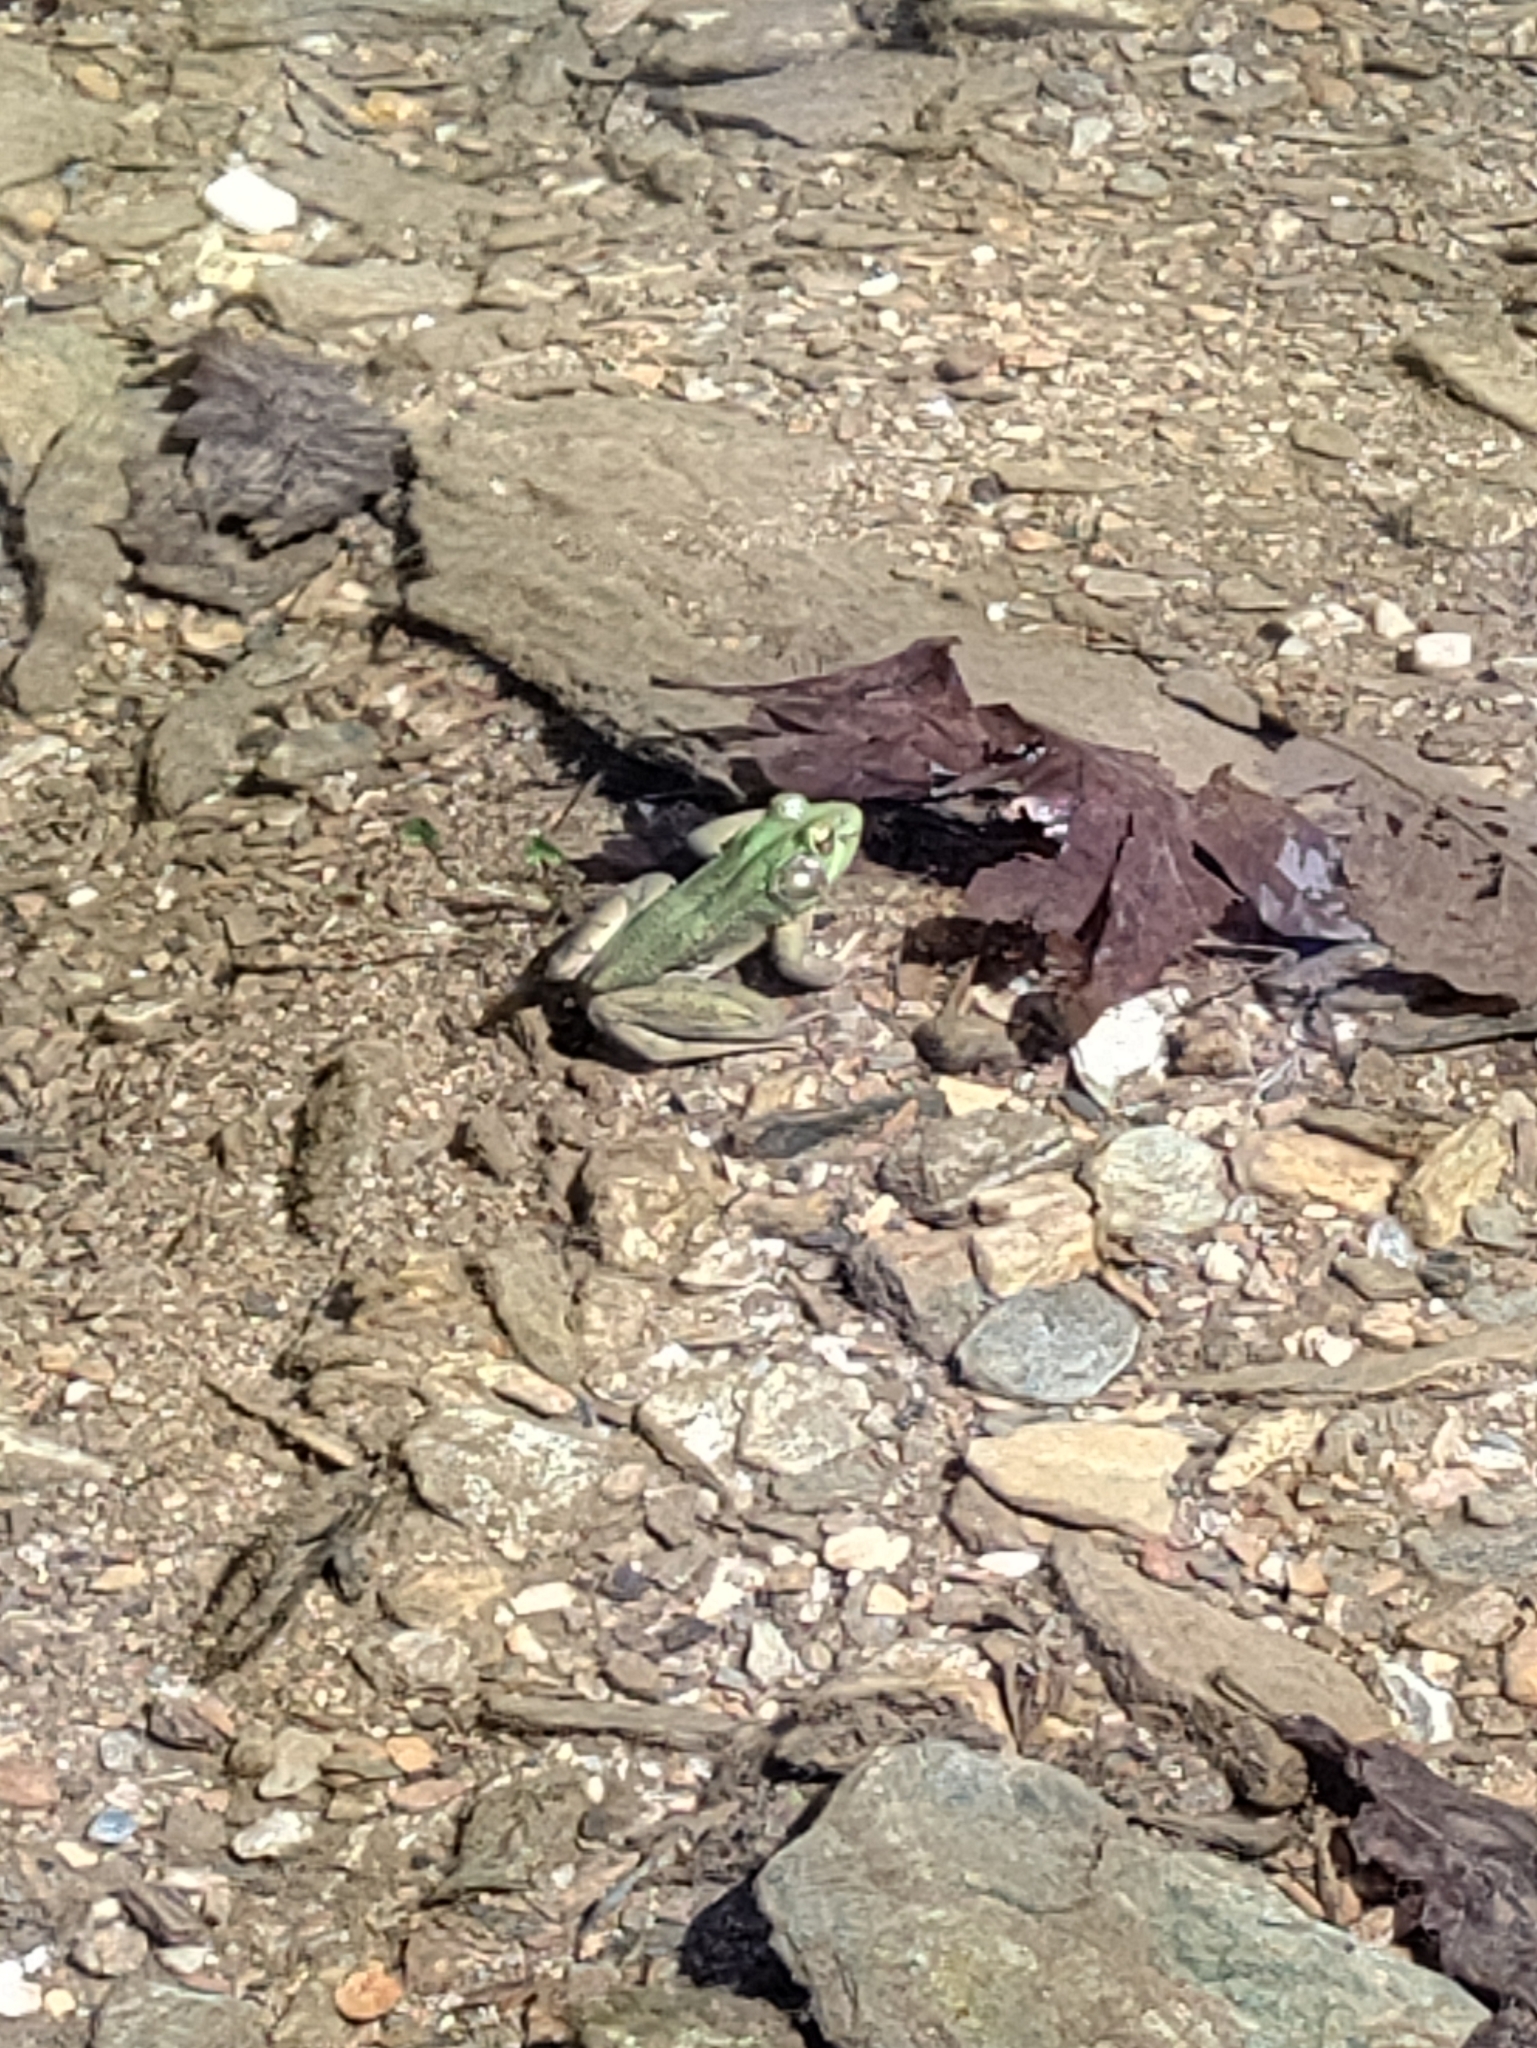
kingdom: Animalia
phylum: Chordata
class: Amphibia
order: Anura
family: Ranidae
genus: Lithobates
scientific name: Lithobates clamitans
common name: Green frog
